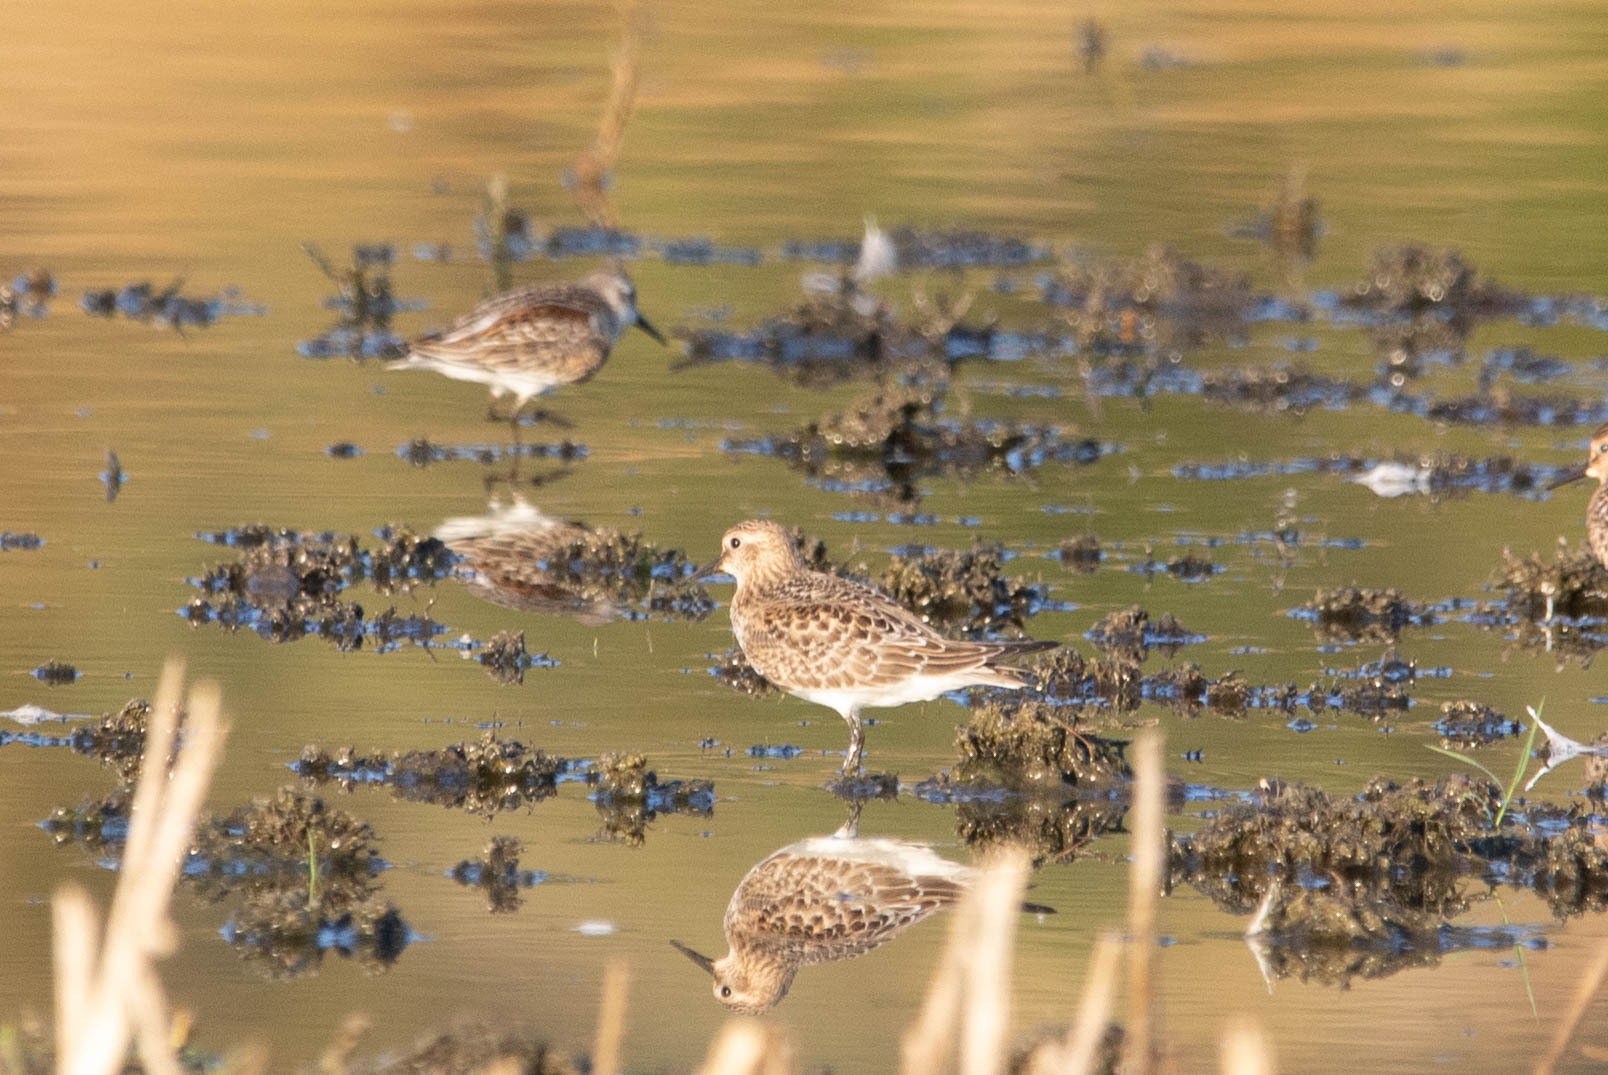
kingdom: Animalia
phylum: Chordata
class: Aves
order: Charadriiformes
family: Scolopacidae
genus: Calidris
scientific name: Calidris bairdii
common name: Baird's sandpiper
